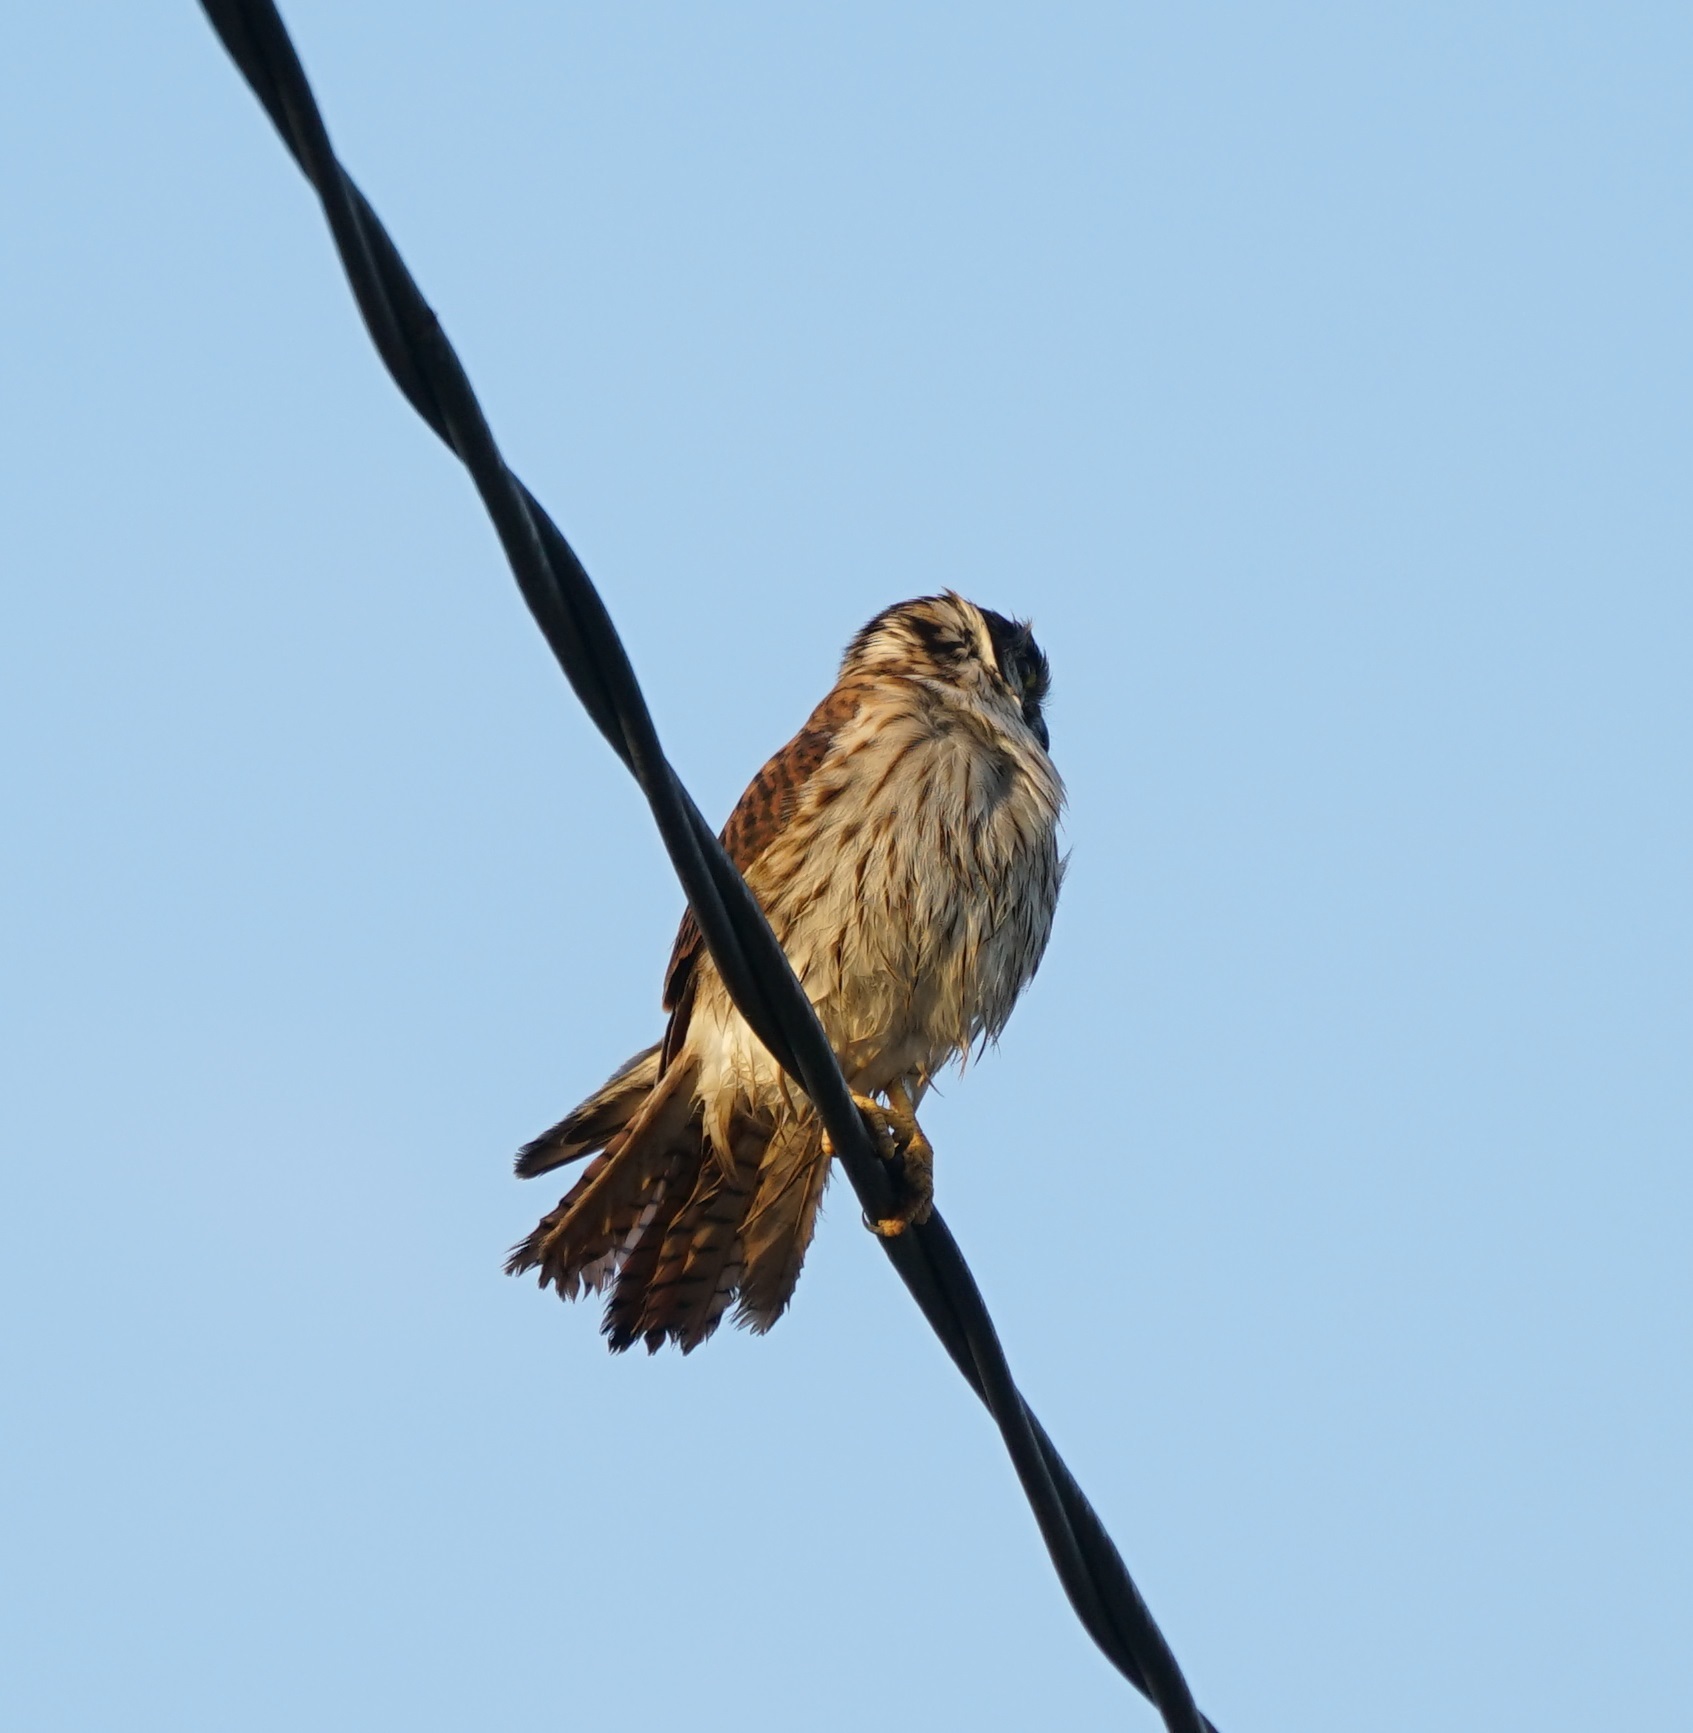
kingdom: Animalia
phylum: Chordata
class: Aves
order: Falconiformes
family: Falconidae
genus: Falco
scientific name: Falco sparverius
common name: American kestrel
